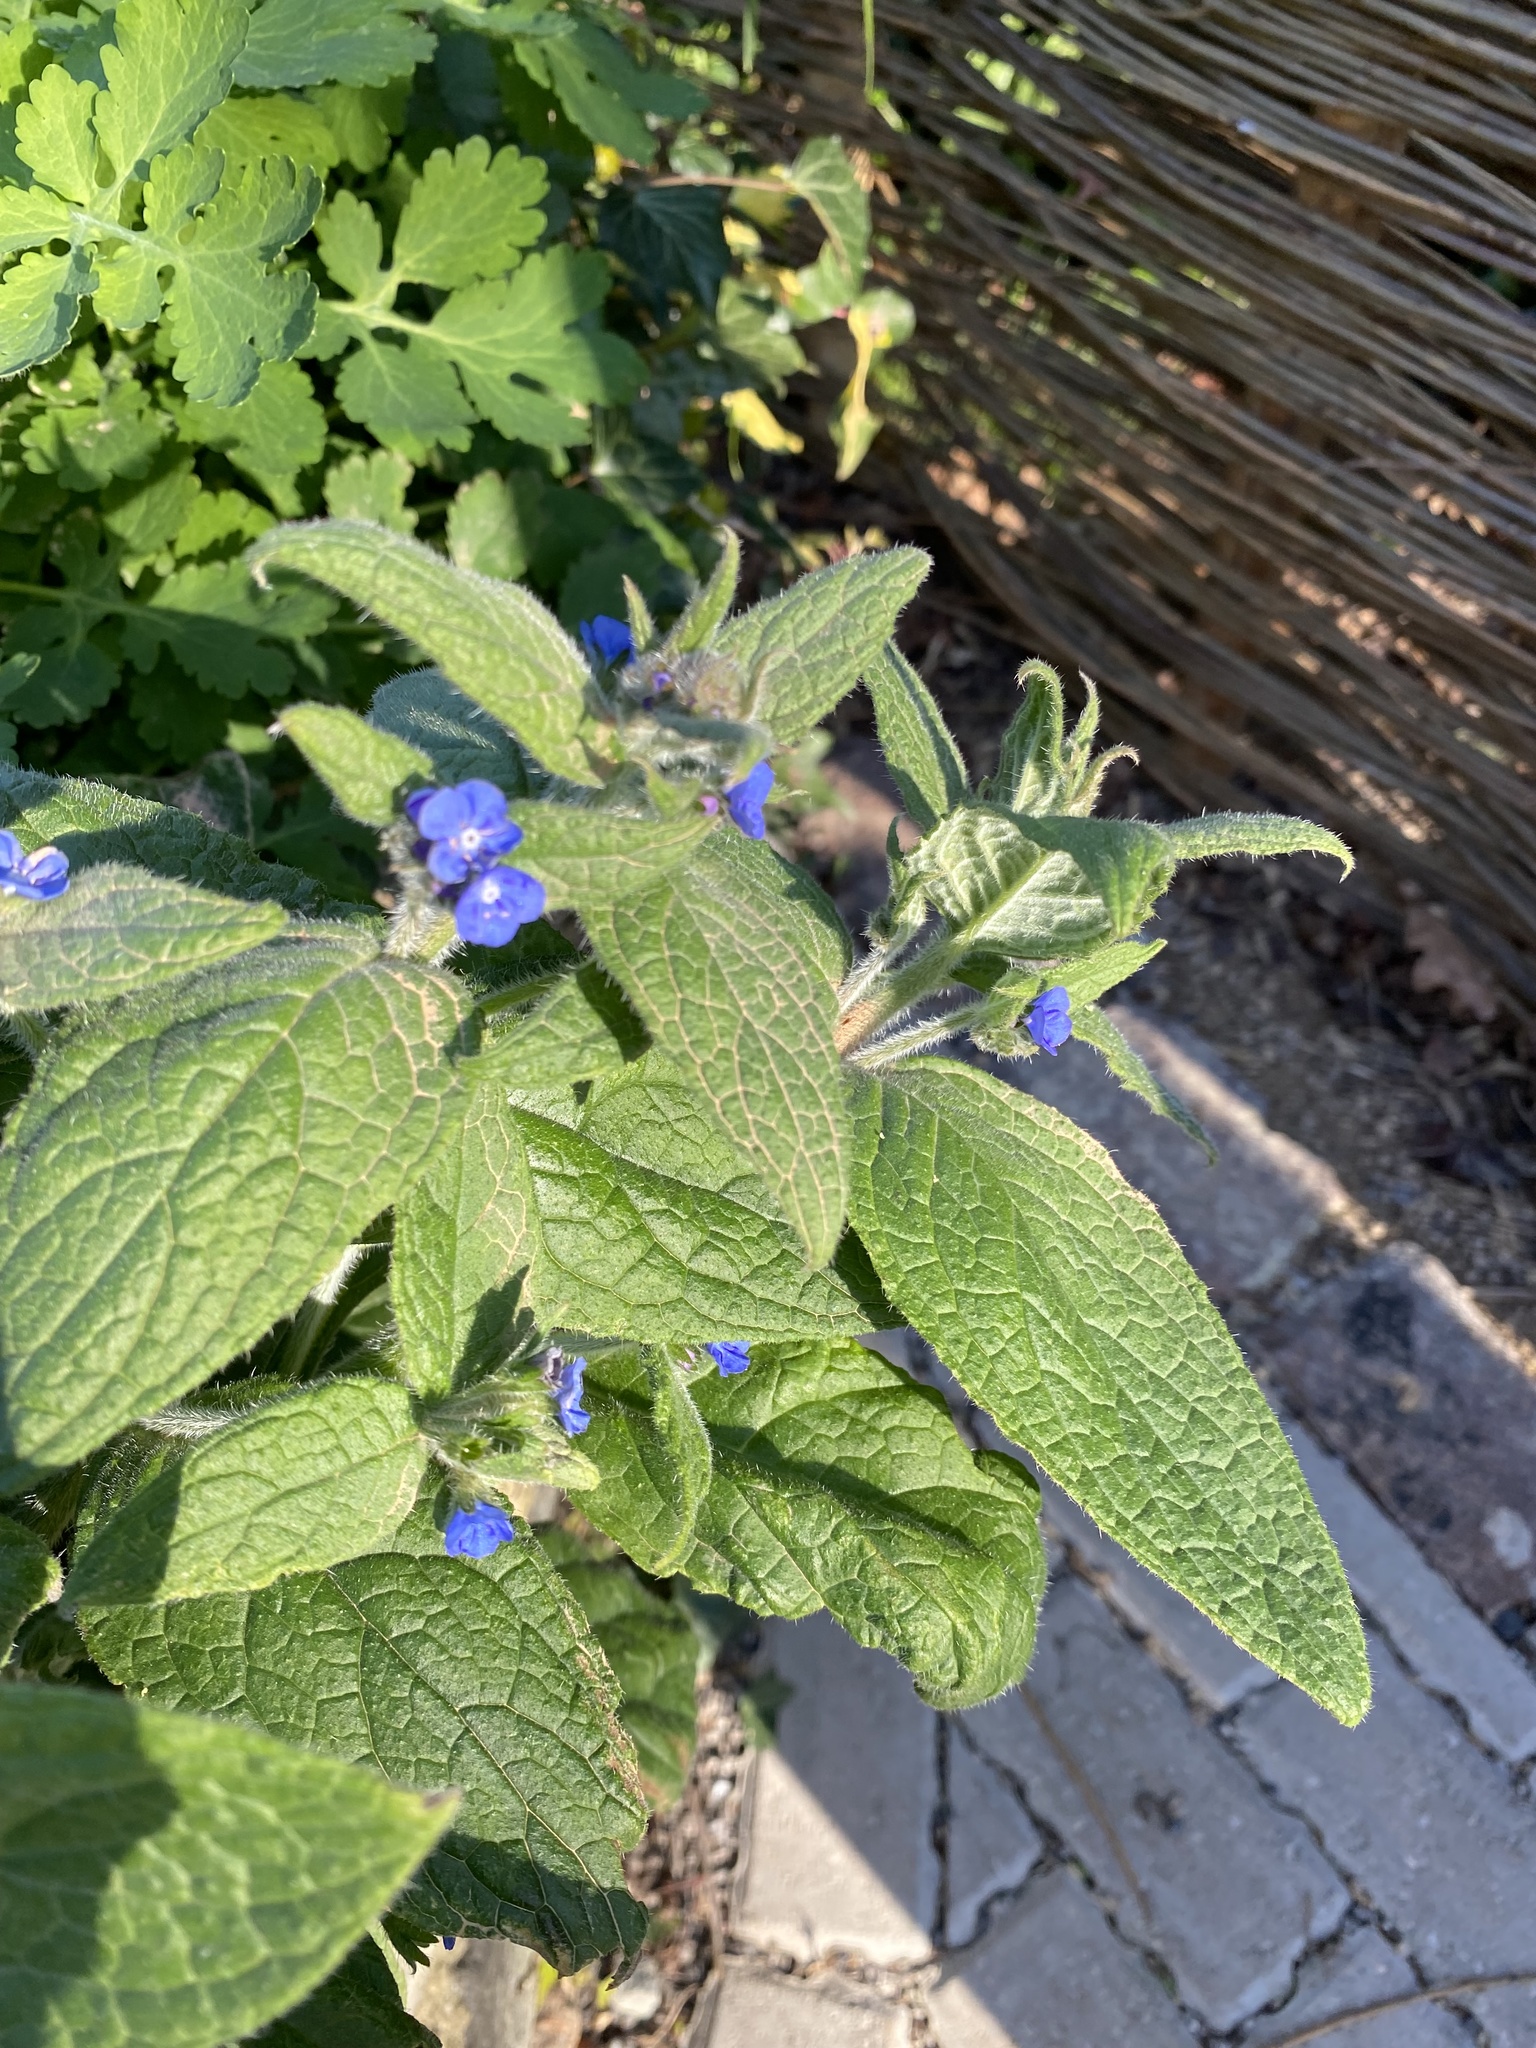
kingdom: Plantae
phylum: Tracheophyta
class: Magnoliopsida
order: Boraginales
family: Boraginaceae
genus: Pentaglottis
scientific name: Pentaglottis sempervirens
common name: Green alkanet
